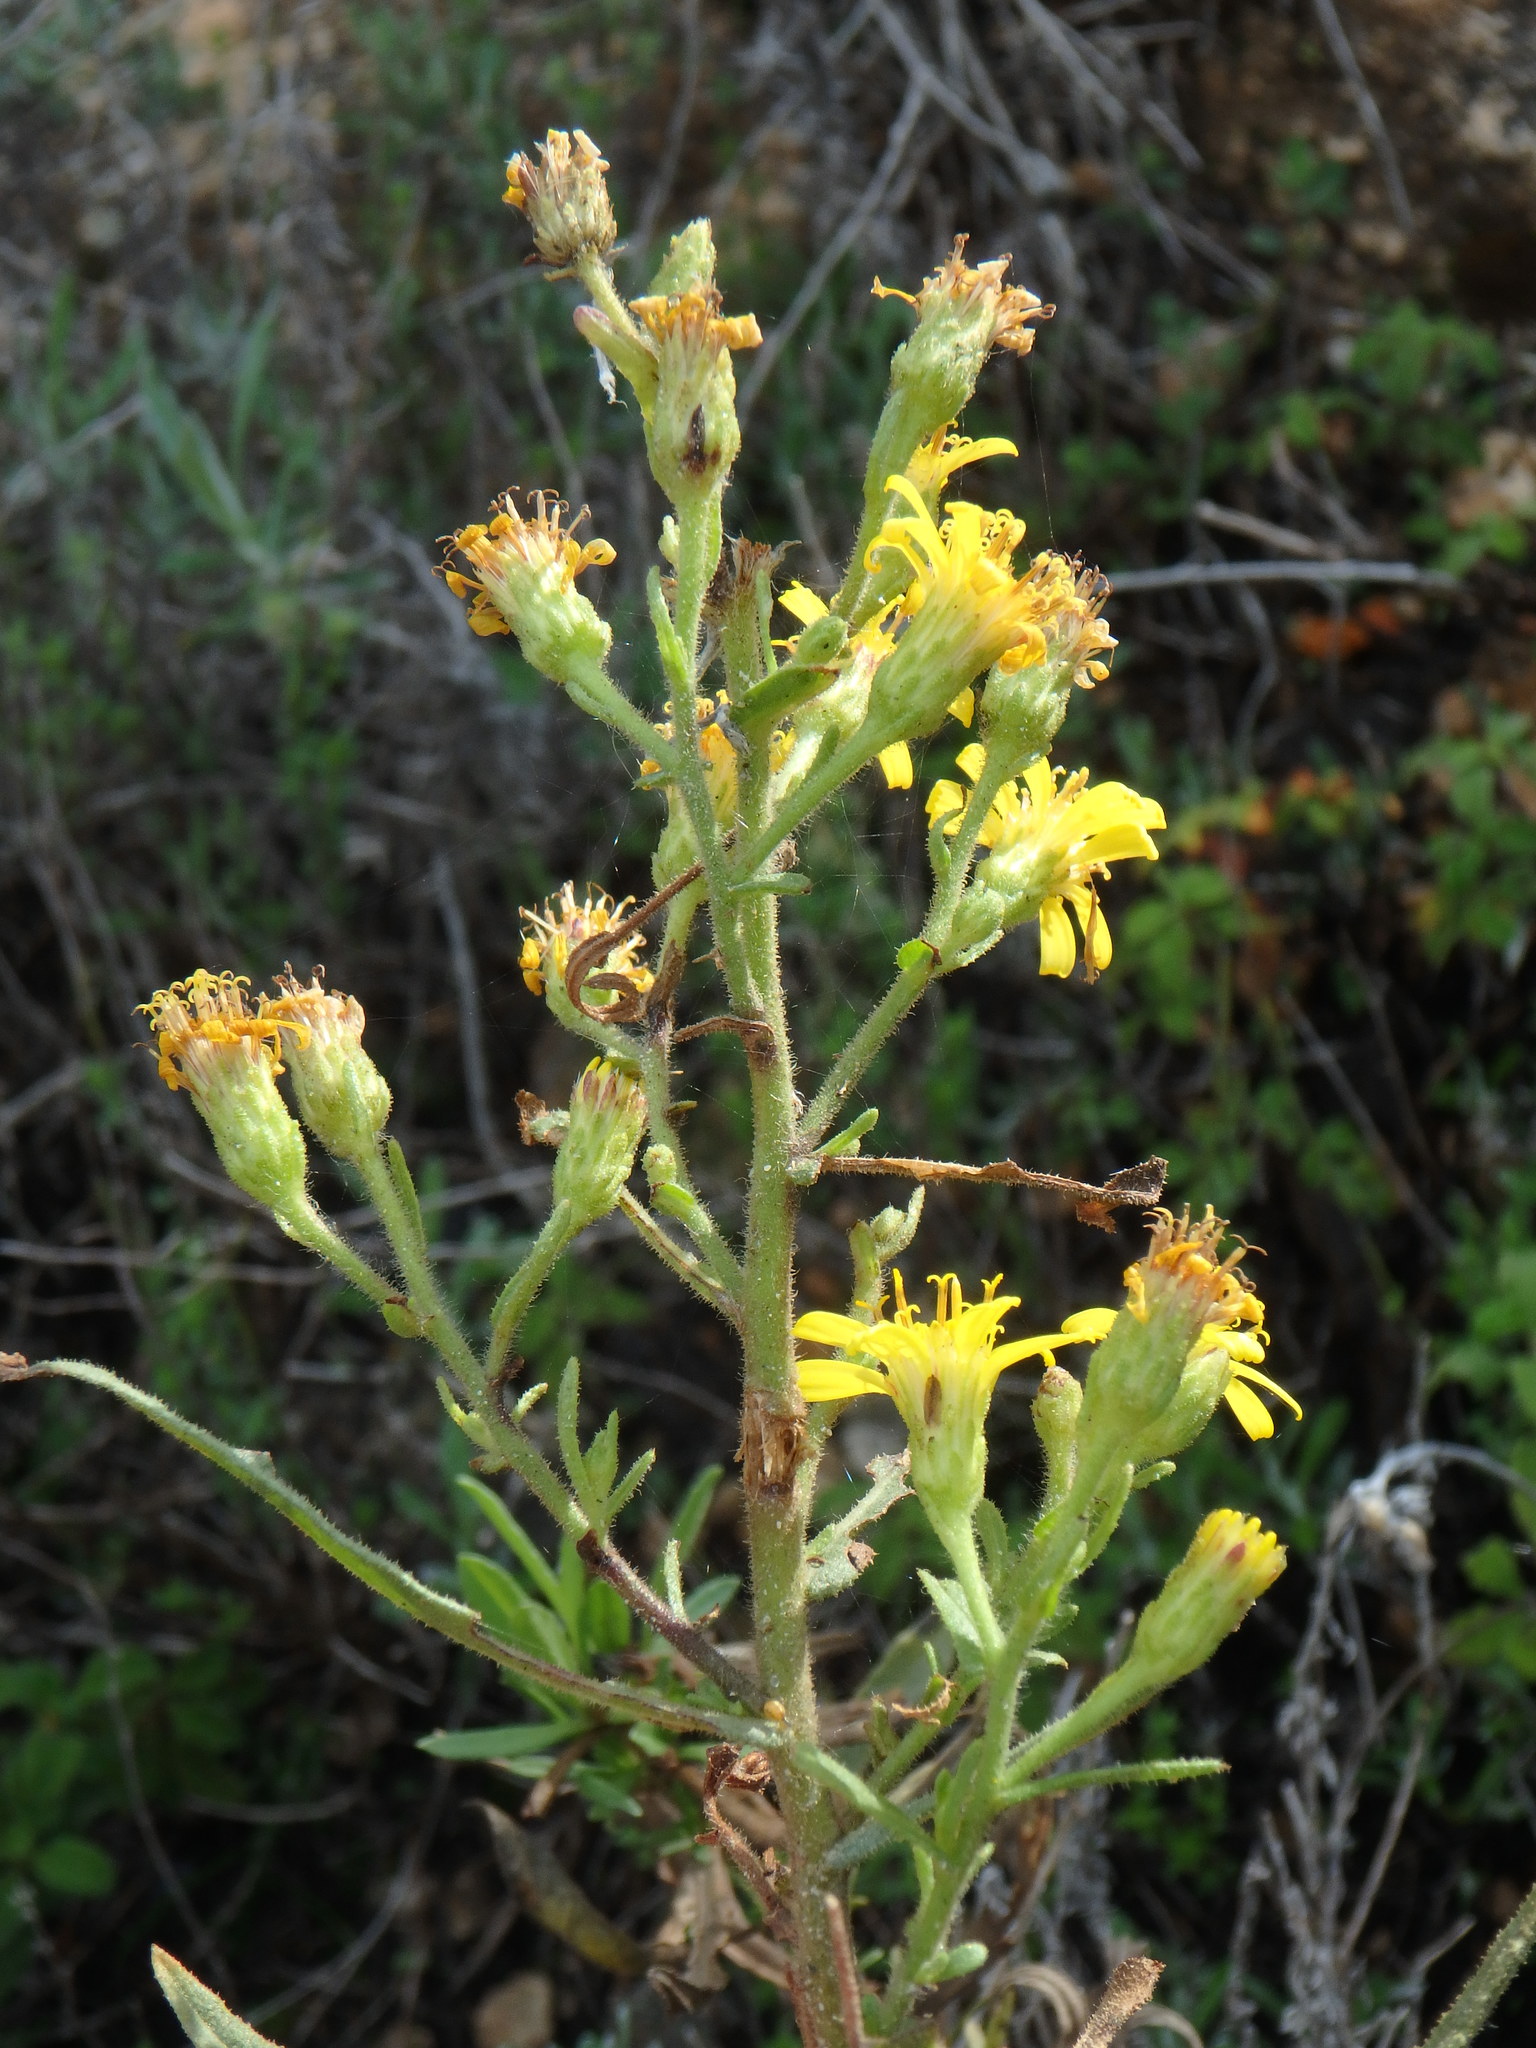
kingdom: Plantae
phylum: Tracheophyta
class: Magnoliopsida
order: Asterales
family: Asteraceae
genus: Dittrichia
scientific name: Dittrichia viscosa
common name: Woody fleabane
